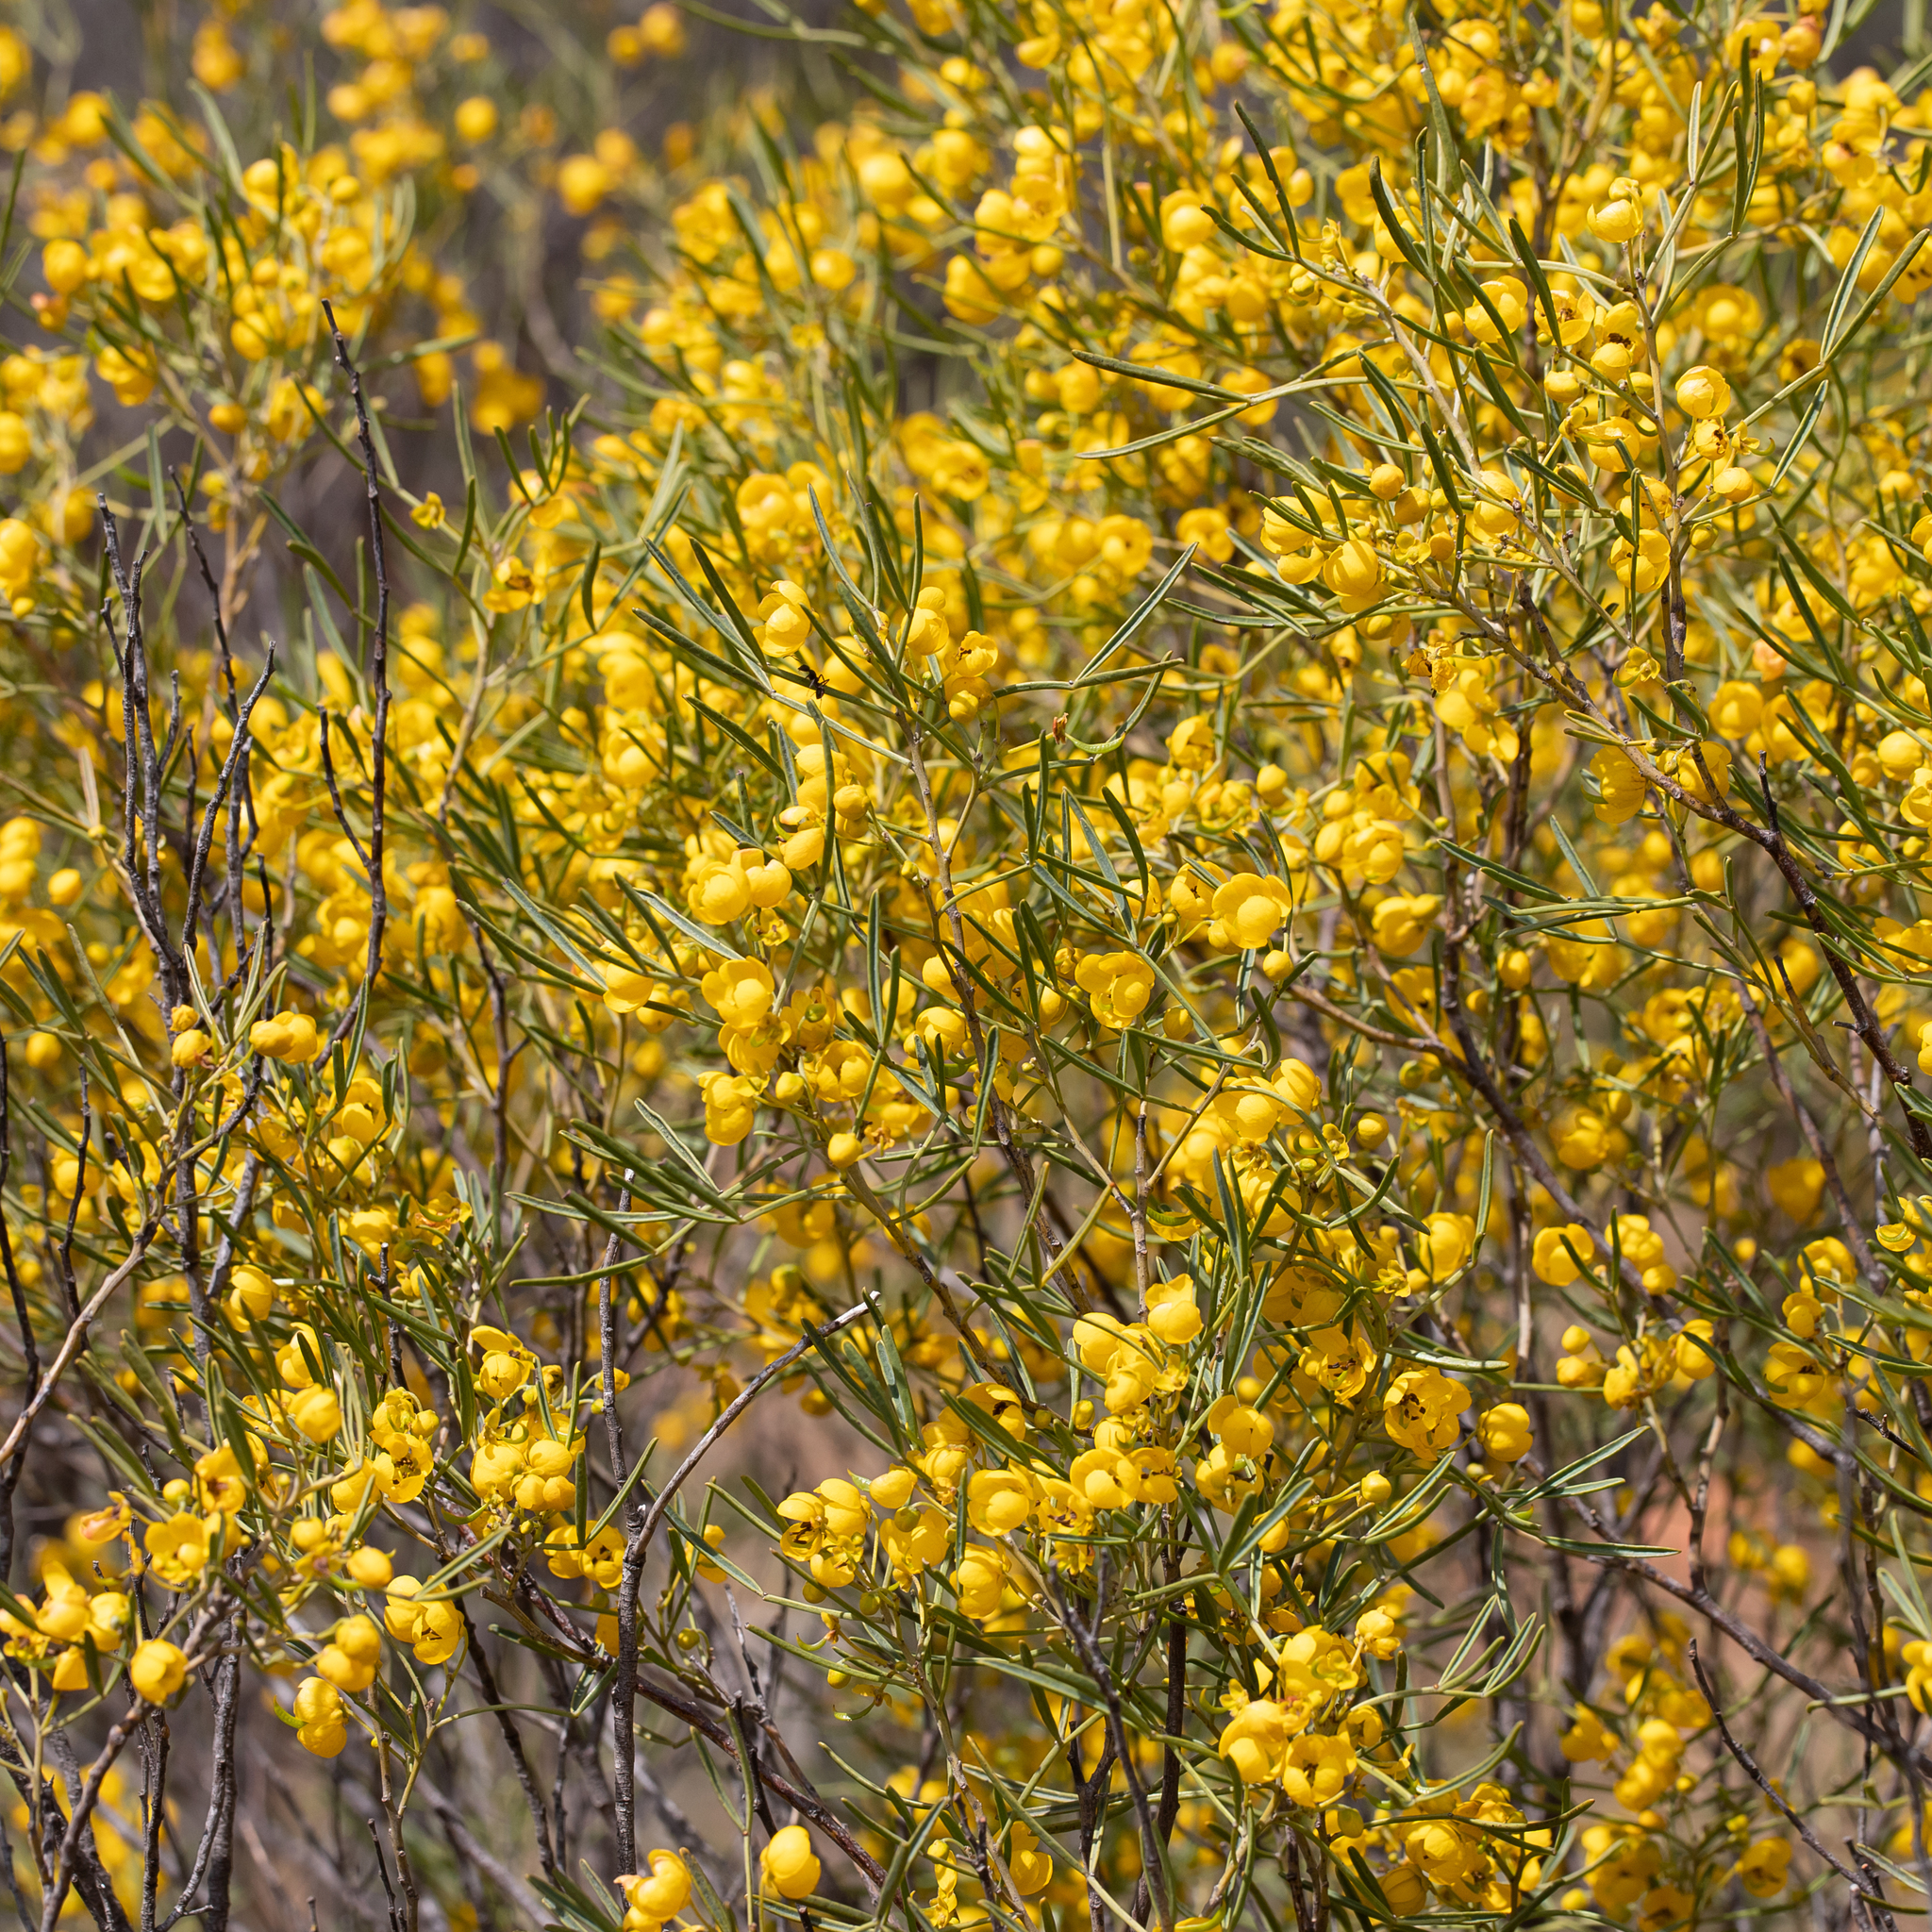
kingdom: Plantae
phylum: Tracheophyta
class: Magnoliopsida
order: Fabales
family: Fabaceae
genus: Senna
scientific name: Senna artemisioides
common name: Burnt-leaved acacia
